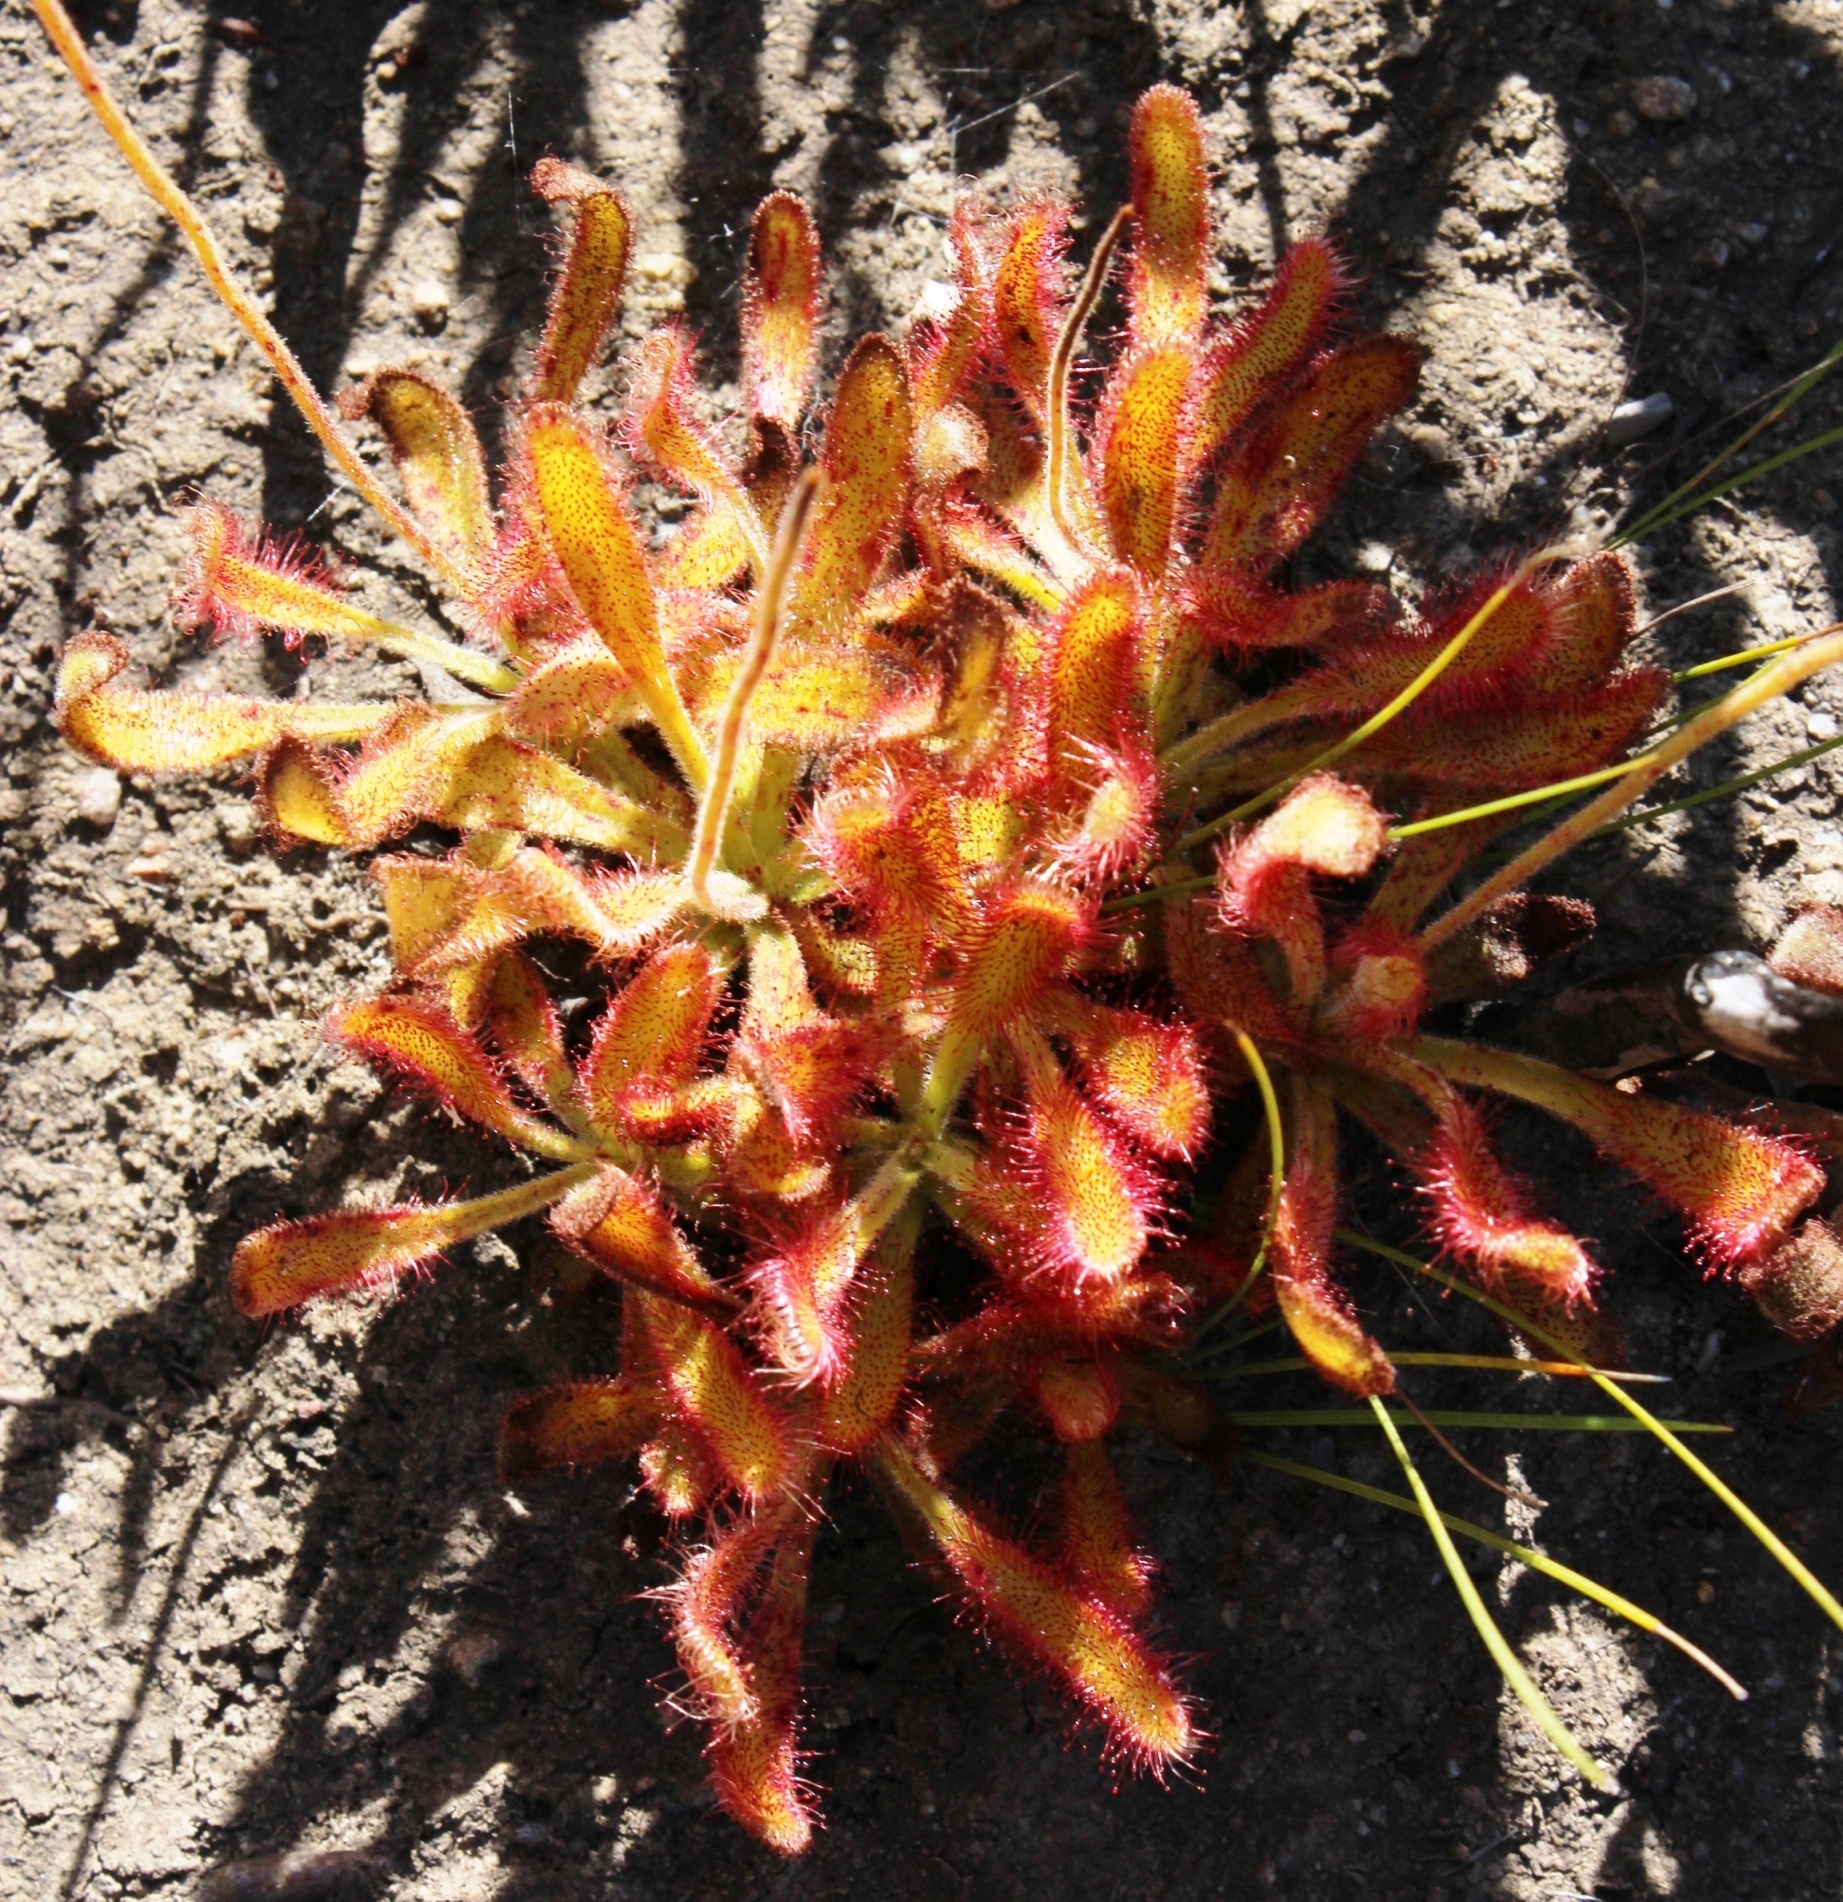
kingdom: Plantae
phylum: Tracheophyta
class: Magnoliopsida
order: Caryophyllales
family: Droseraceae
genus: Drosera
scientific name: Drosera hilaris
